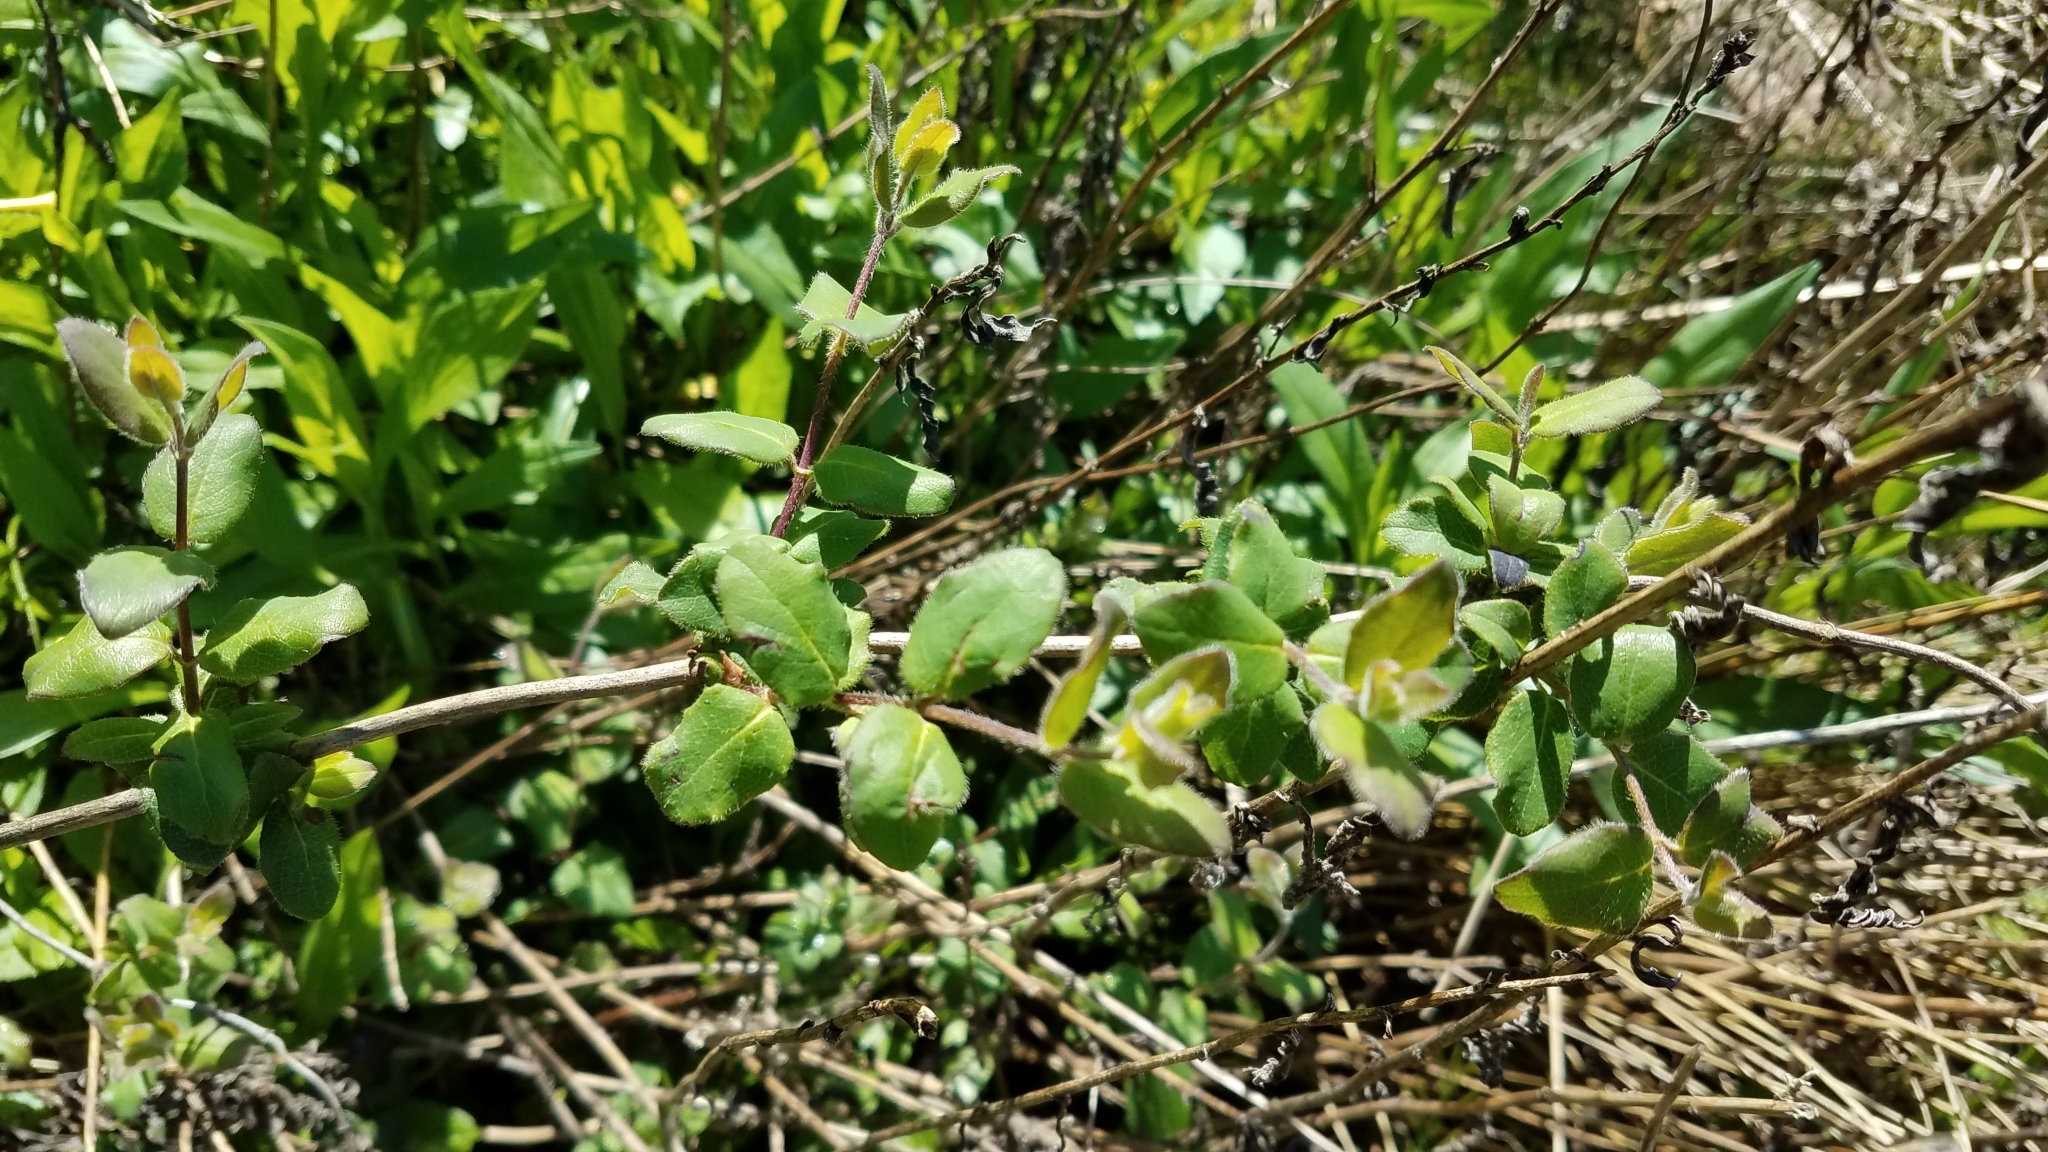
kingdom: Plantae
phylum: Tracheophyta
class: Magnoliopsida
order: Dipsacales
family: Caprifoliaceae
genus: Lonicera
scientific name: Lonicera hispidula
